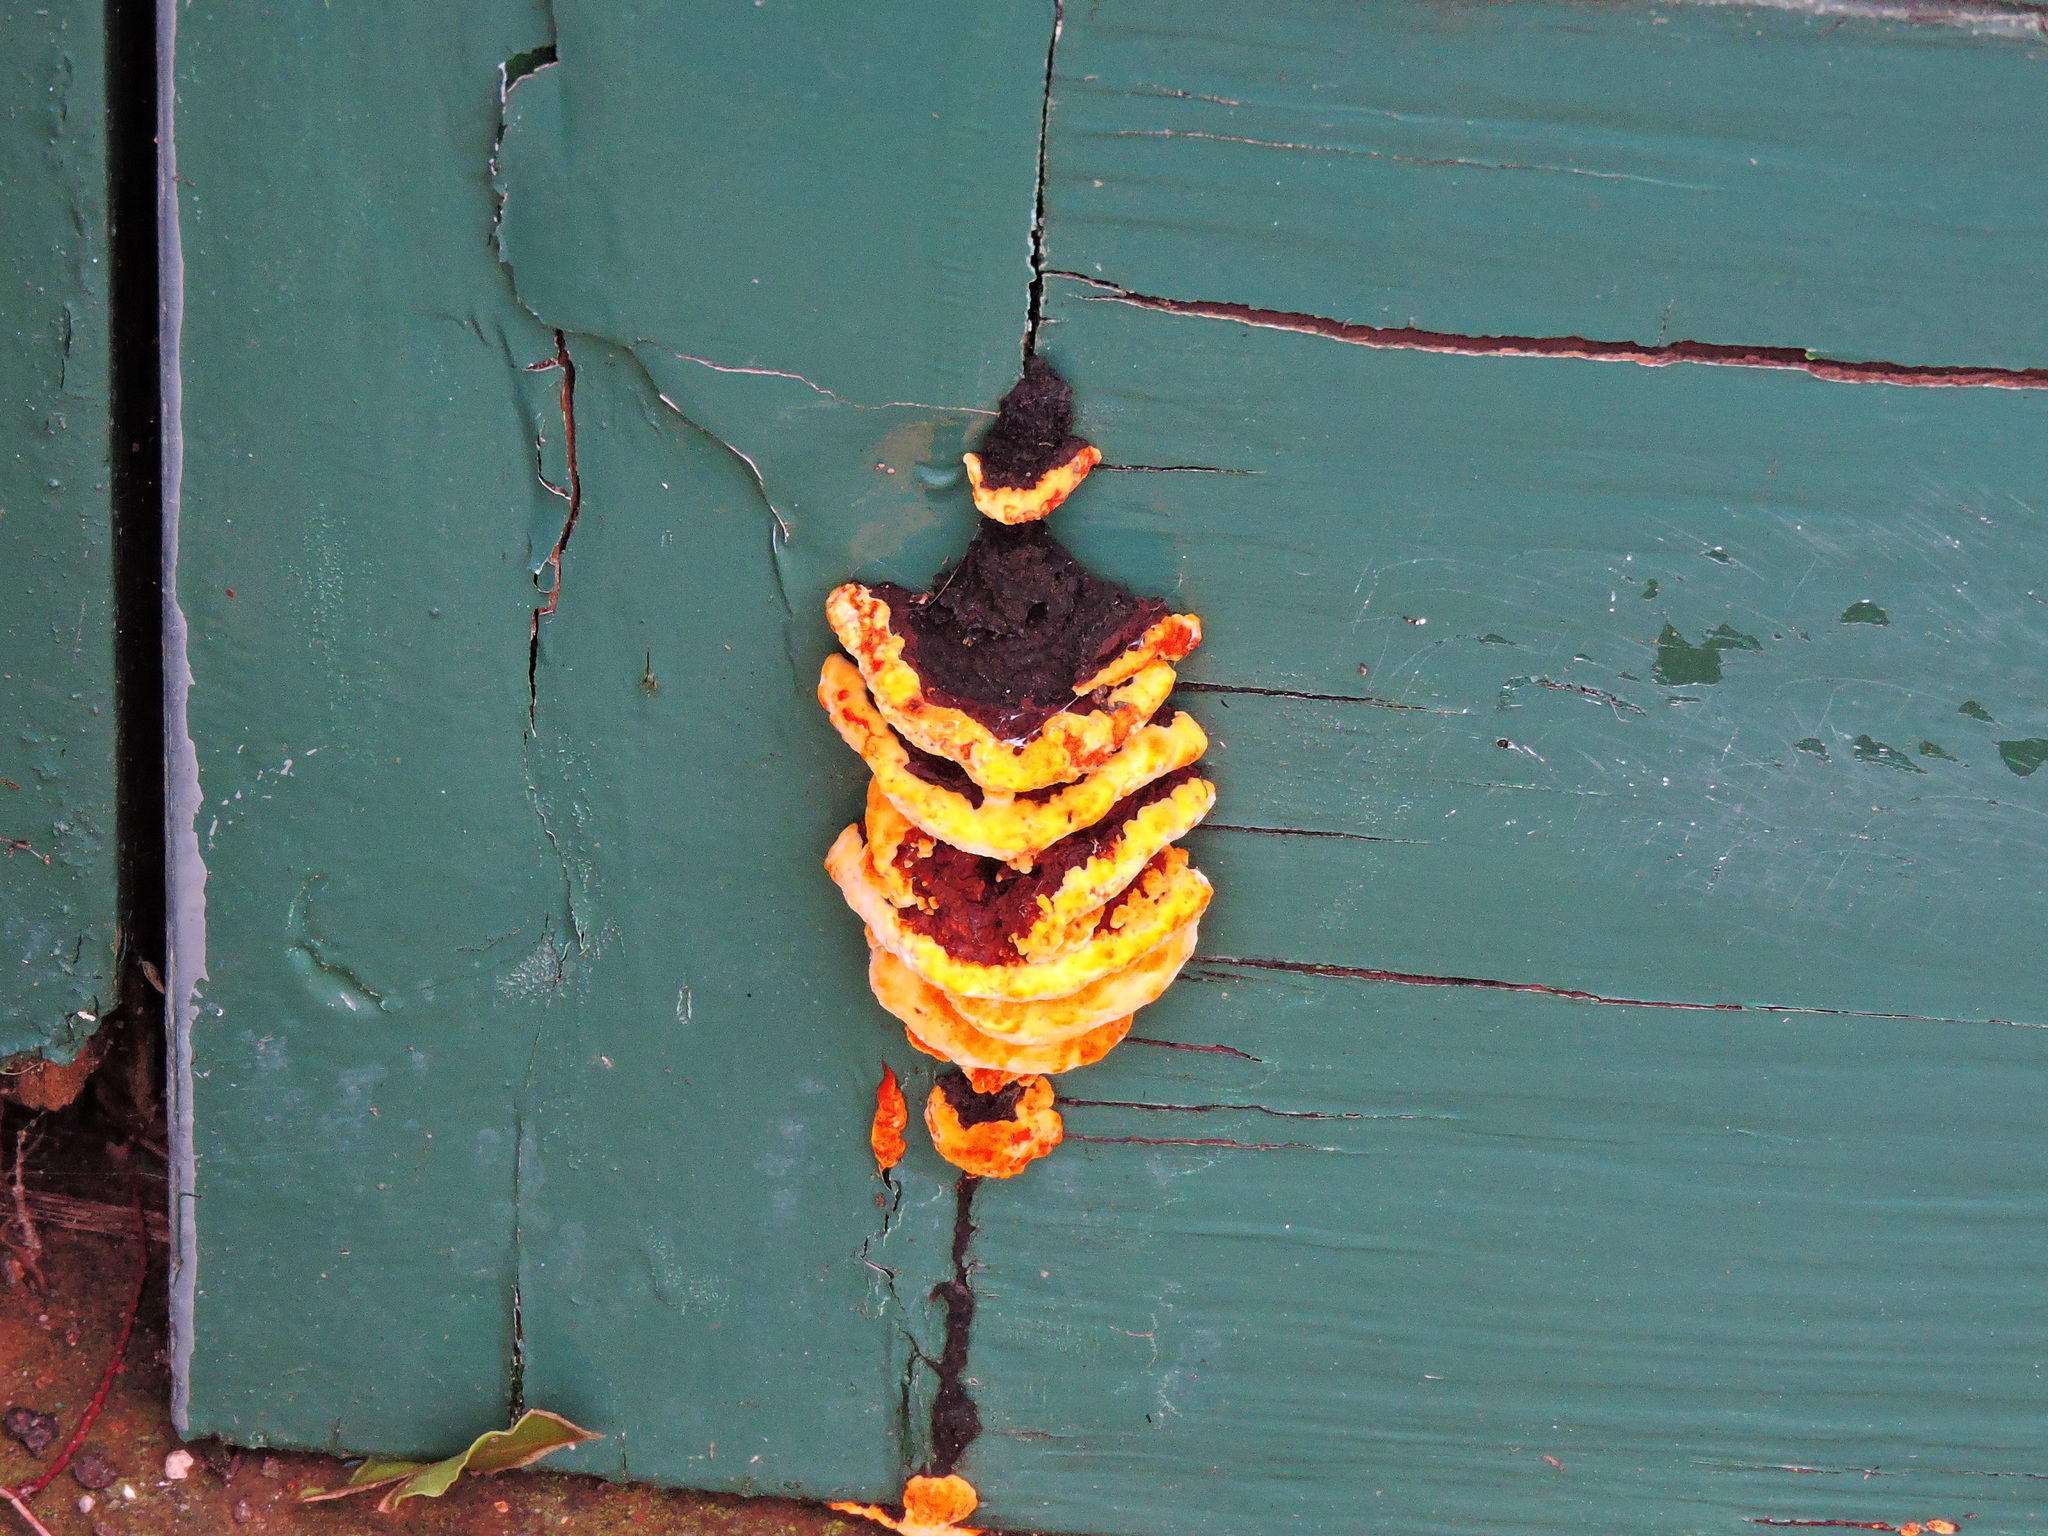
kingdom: Fungi
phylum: Basidiomycota
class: Agaricomycetes
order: Gloeophyllales
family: Gloeophyllaceae
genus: Gloeophyllum
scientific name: Gloeophyllum sepiarium
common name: Conifer mazegill
